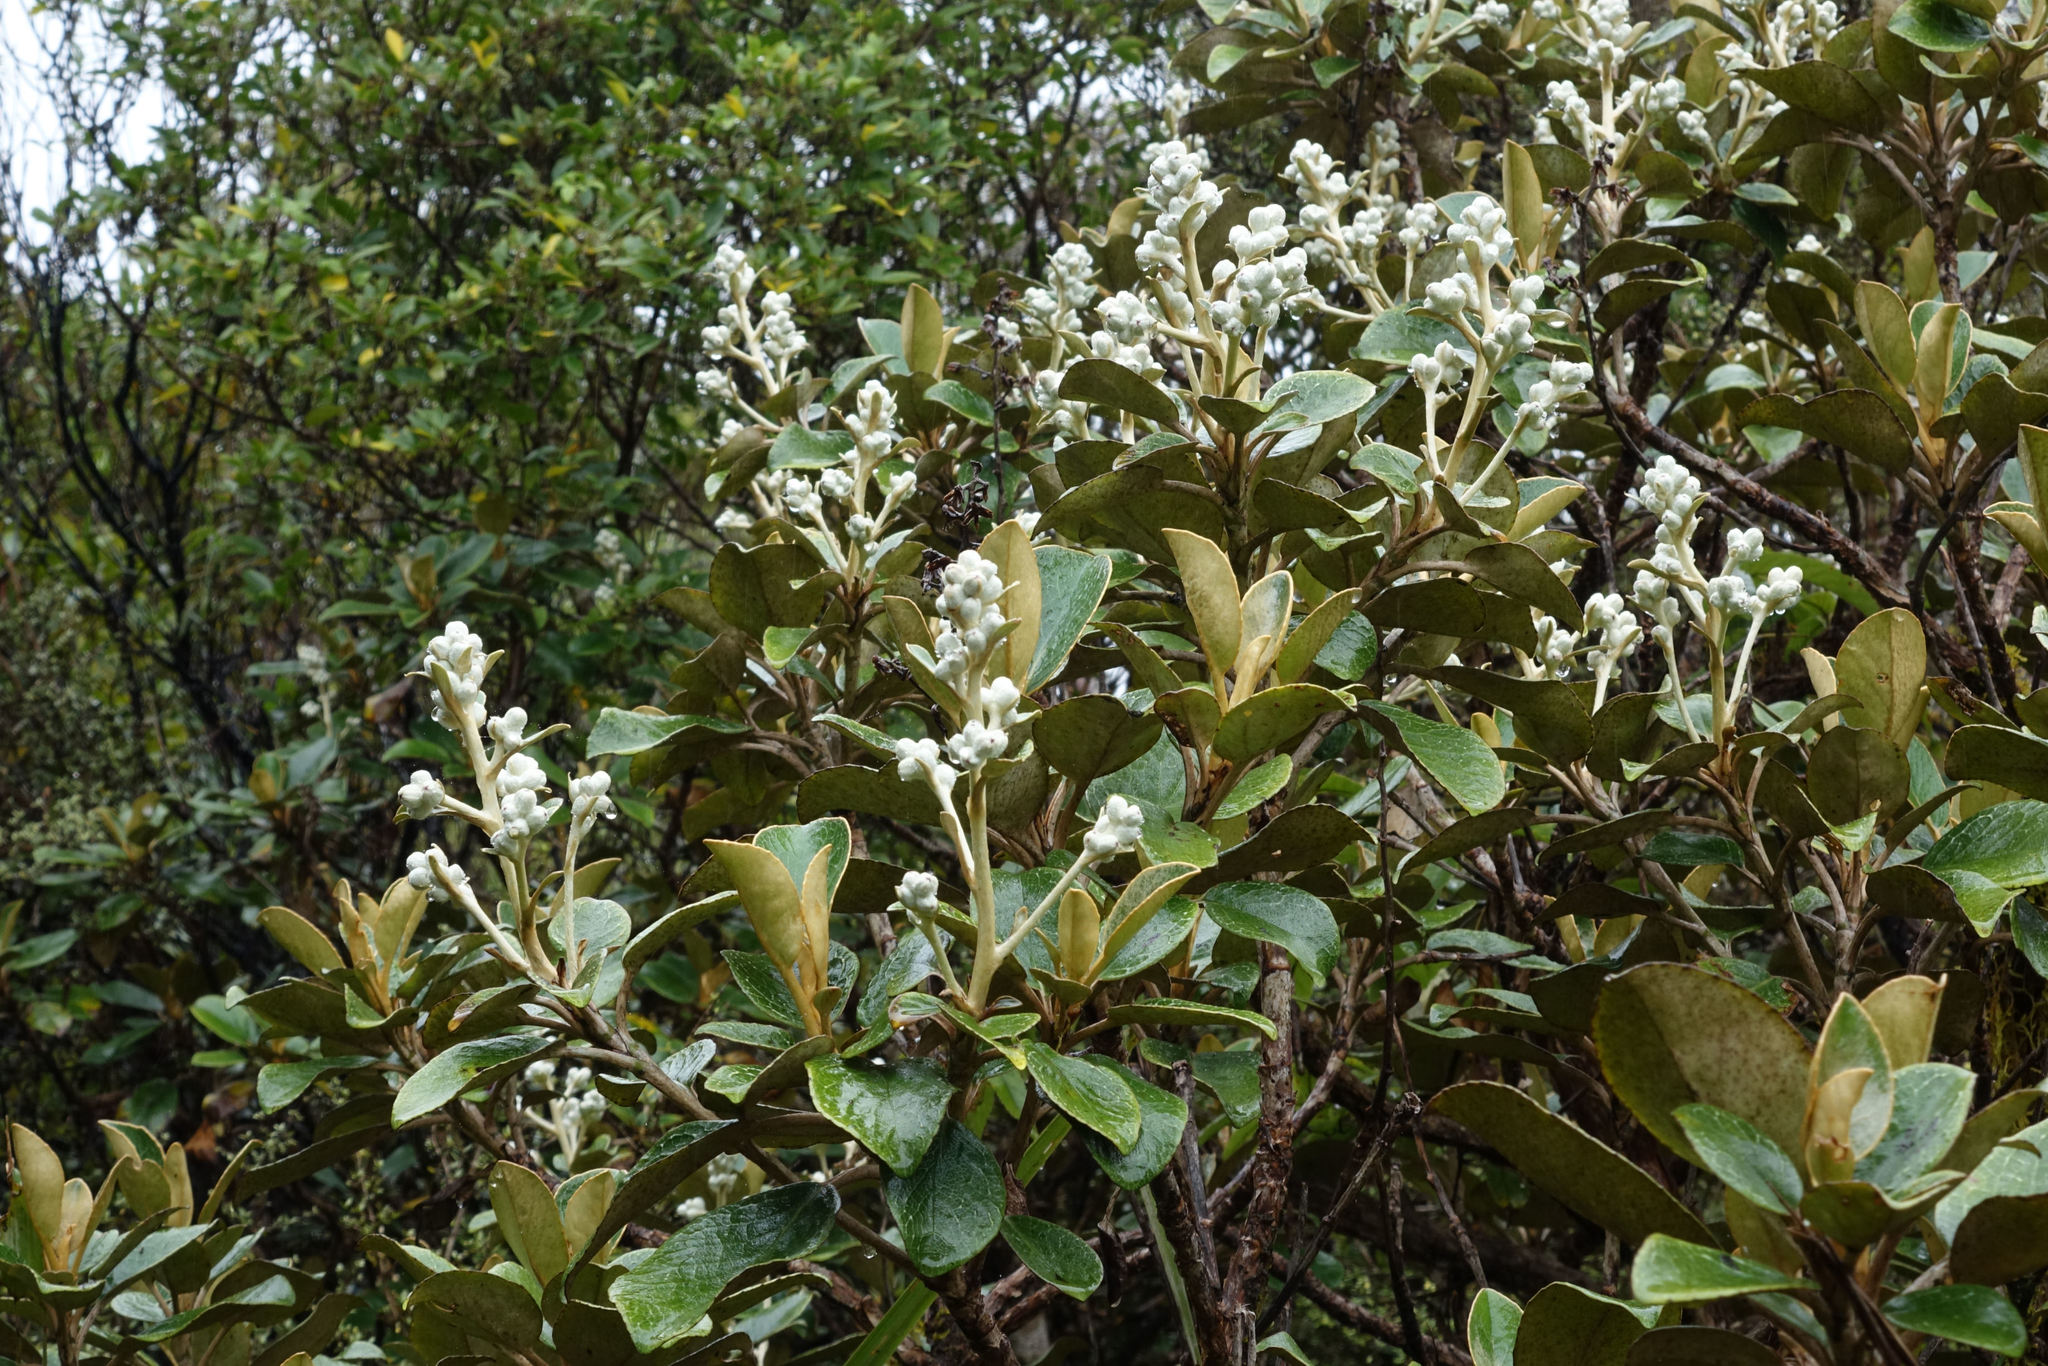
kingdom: Plantae
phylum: Tracheophyta
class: Magnoliopsida
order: Asterales
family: Asteraceae
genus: Brachyglottis
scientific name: Brachyglottis elaeagnifolia
